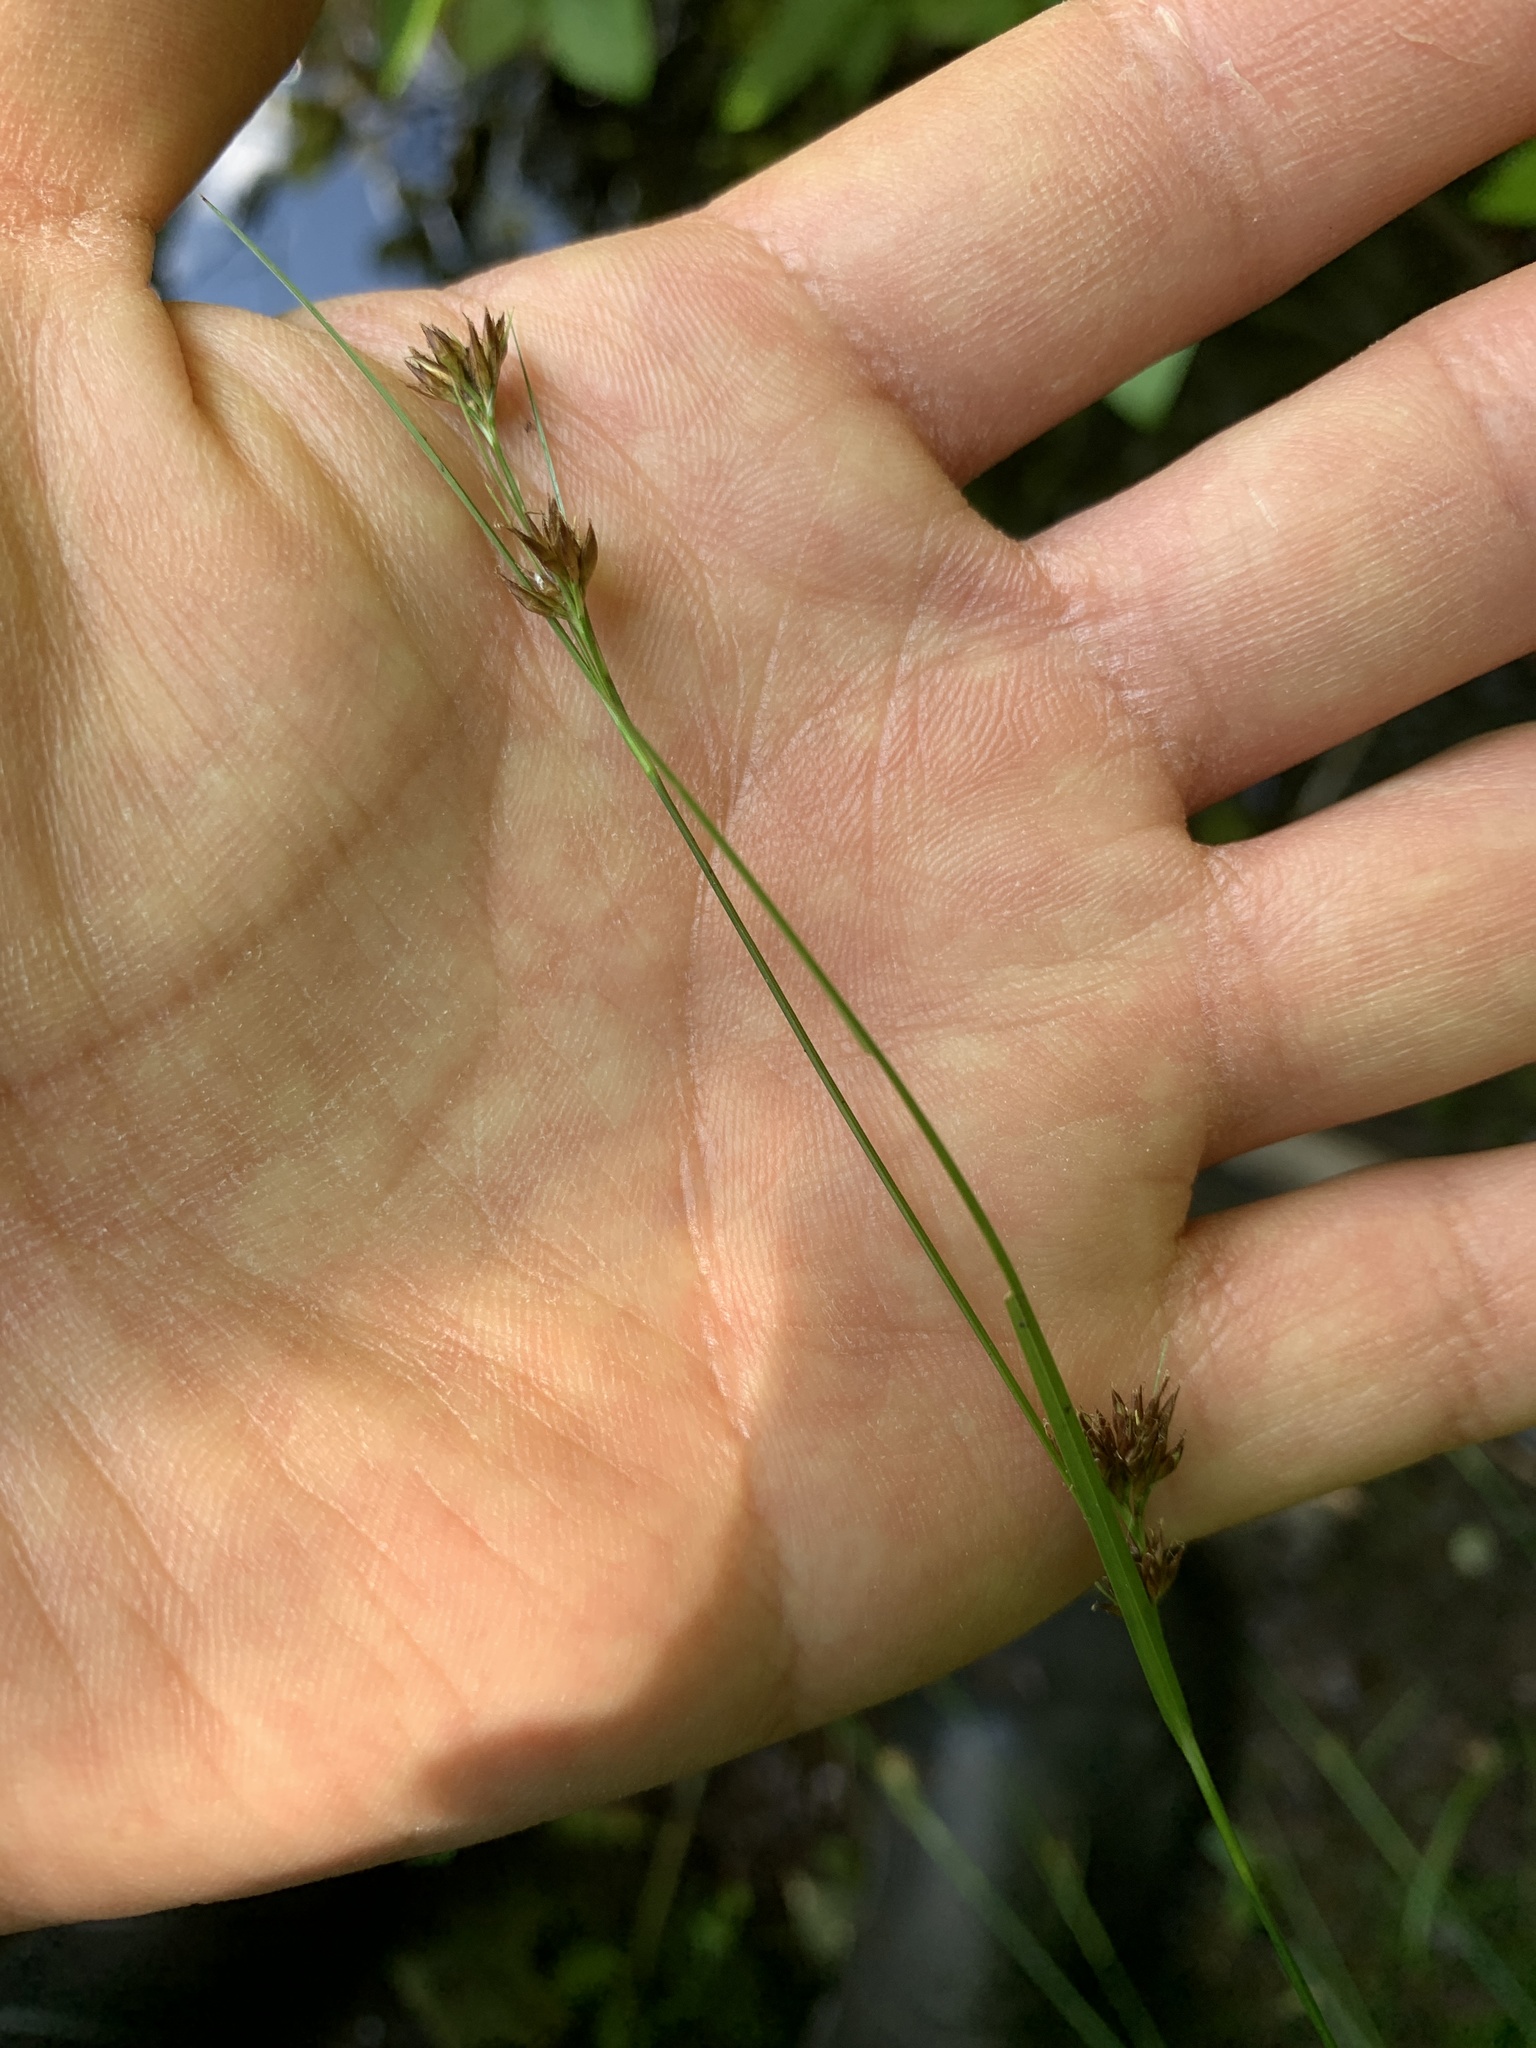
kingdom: Plantae
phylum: Tracheophyta
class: Liliopsida
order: Poales
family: Cyperaceae
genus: Rhynchospora
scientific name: Rhynchospora capitellata
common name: Brownish beaksedge
